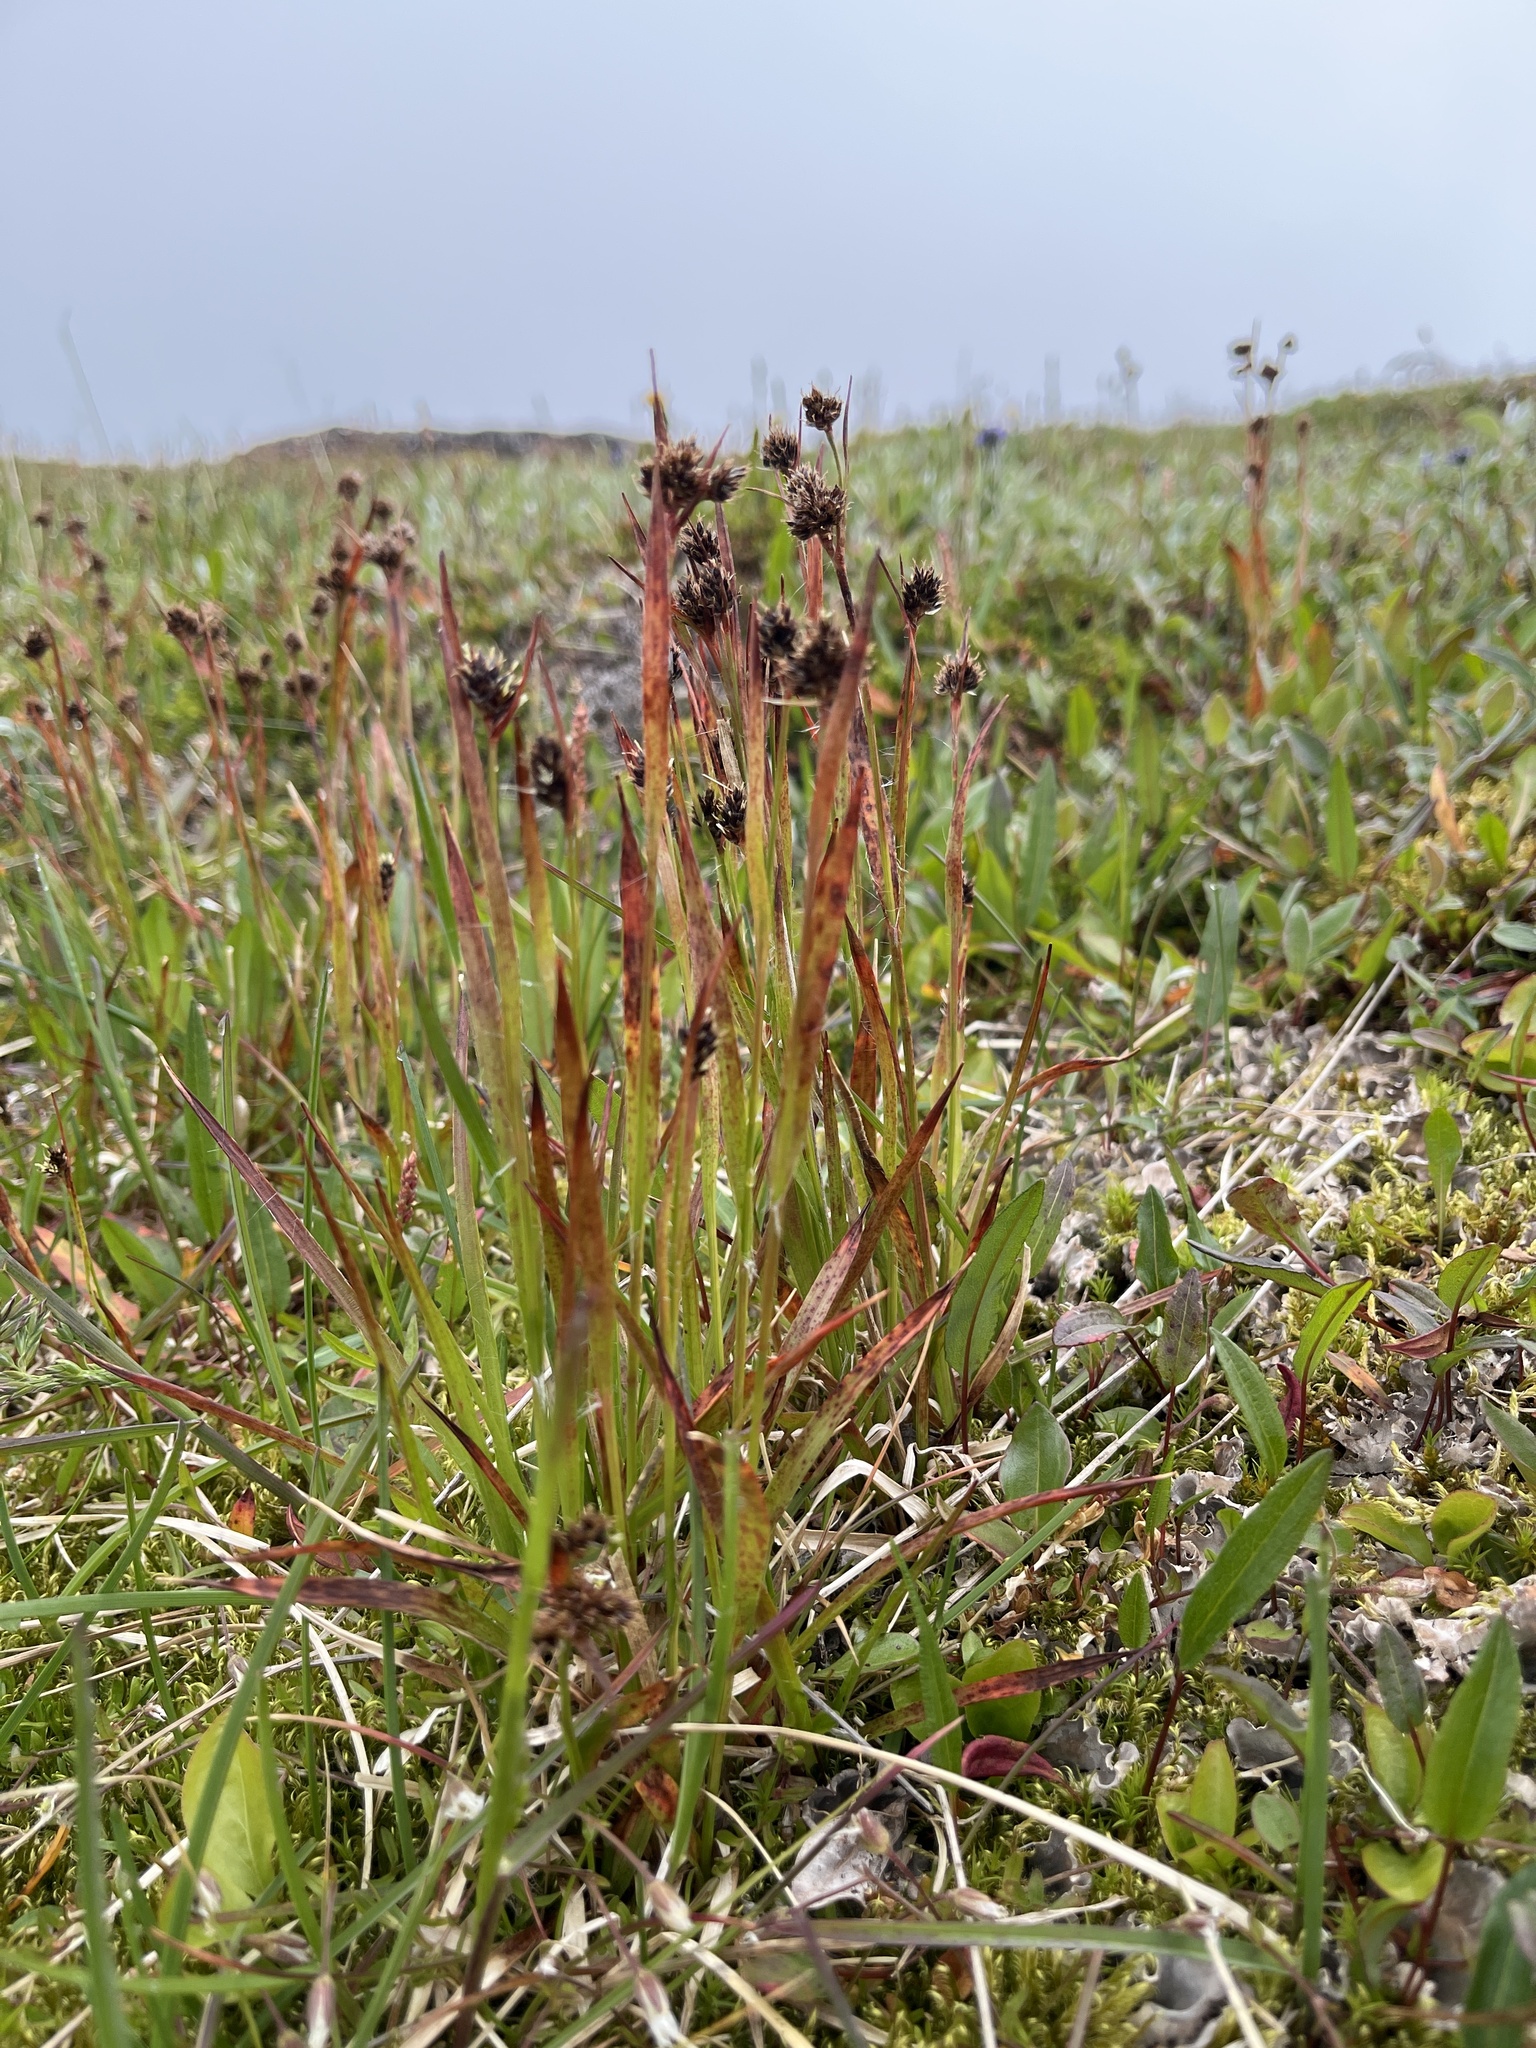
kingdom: Plantae
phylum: Tracheophyta
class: Liliopsida
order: Poales
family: Juncaceae
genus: Luzula
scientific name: Luzula multiflora
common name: Heath wood-rush
